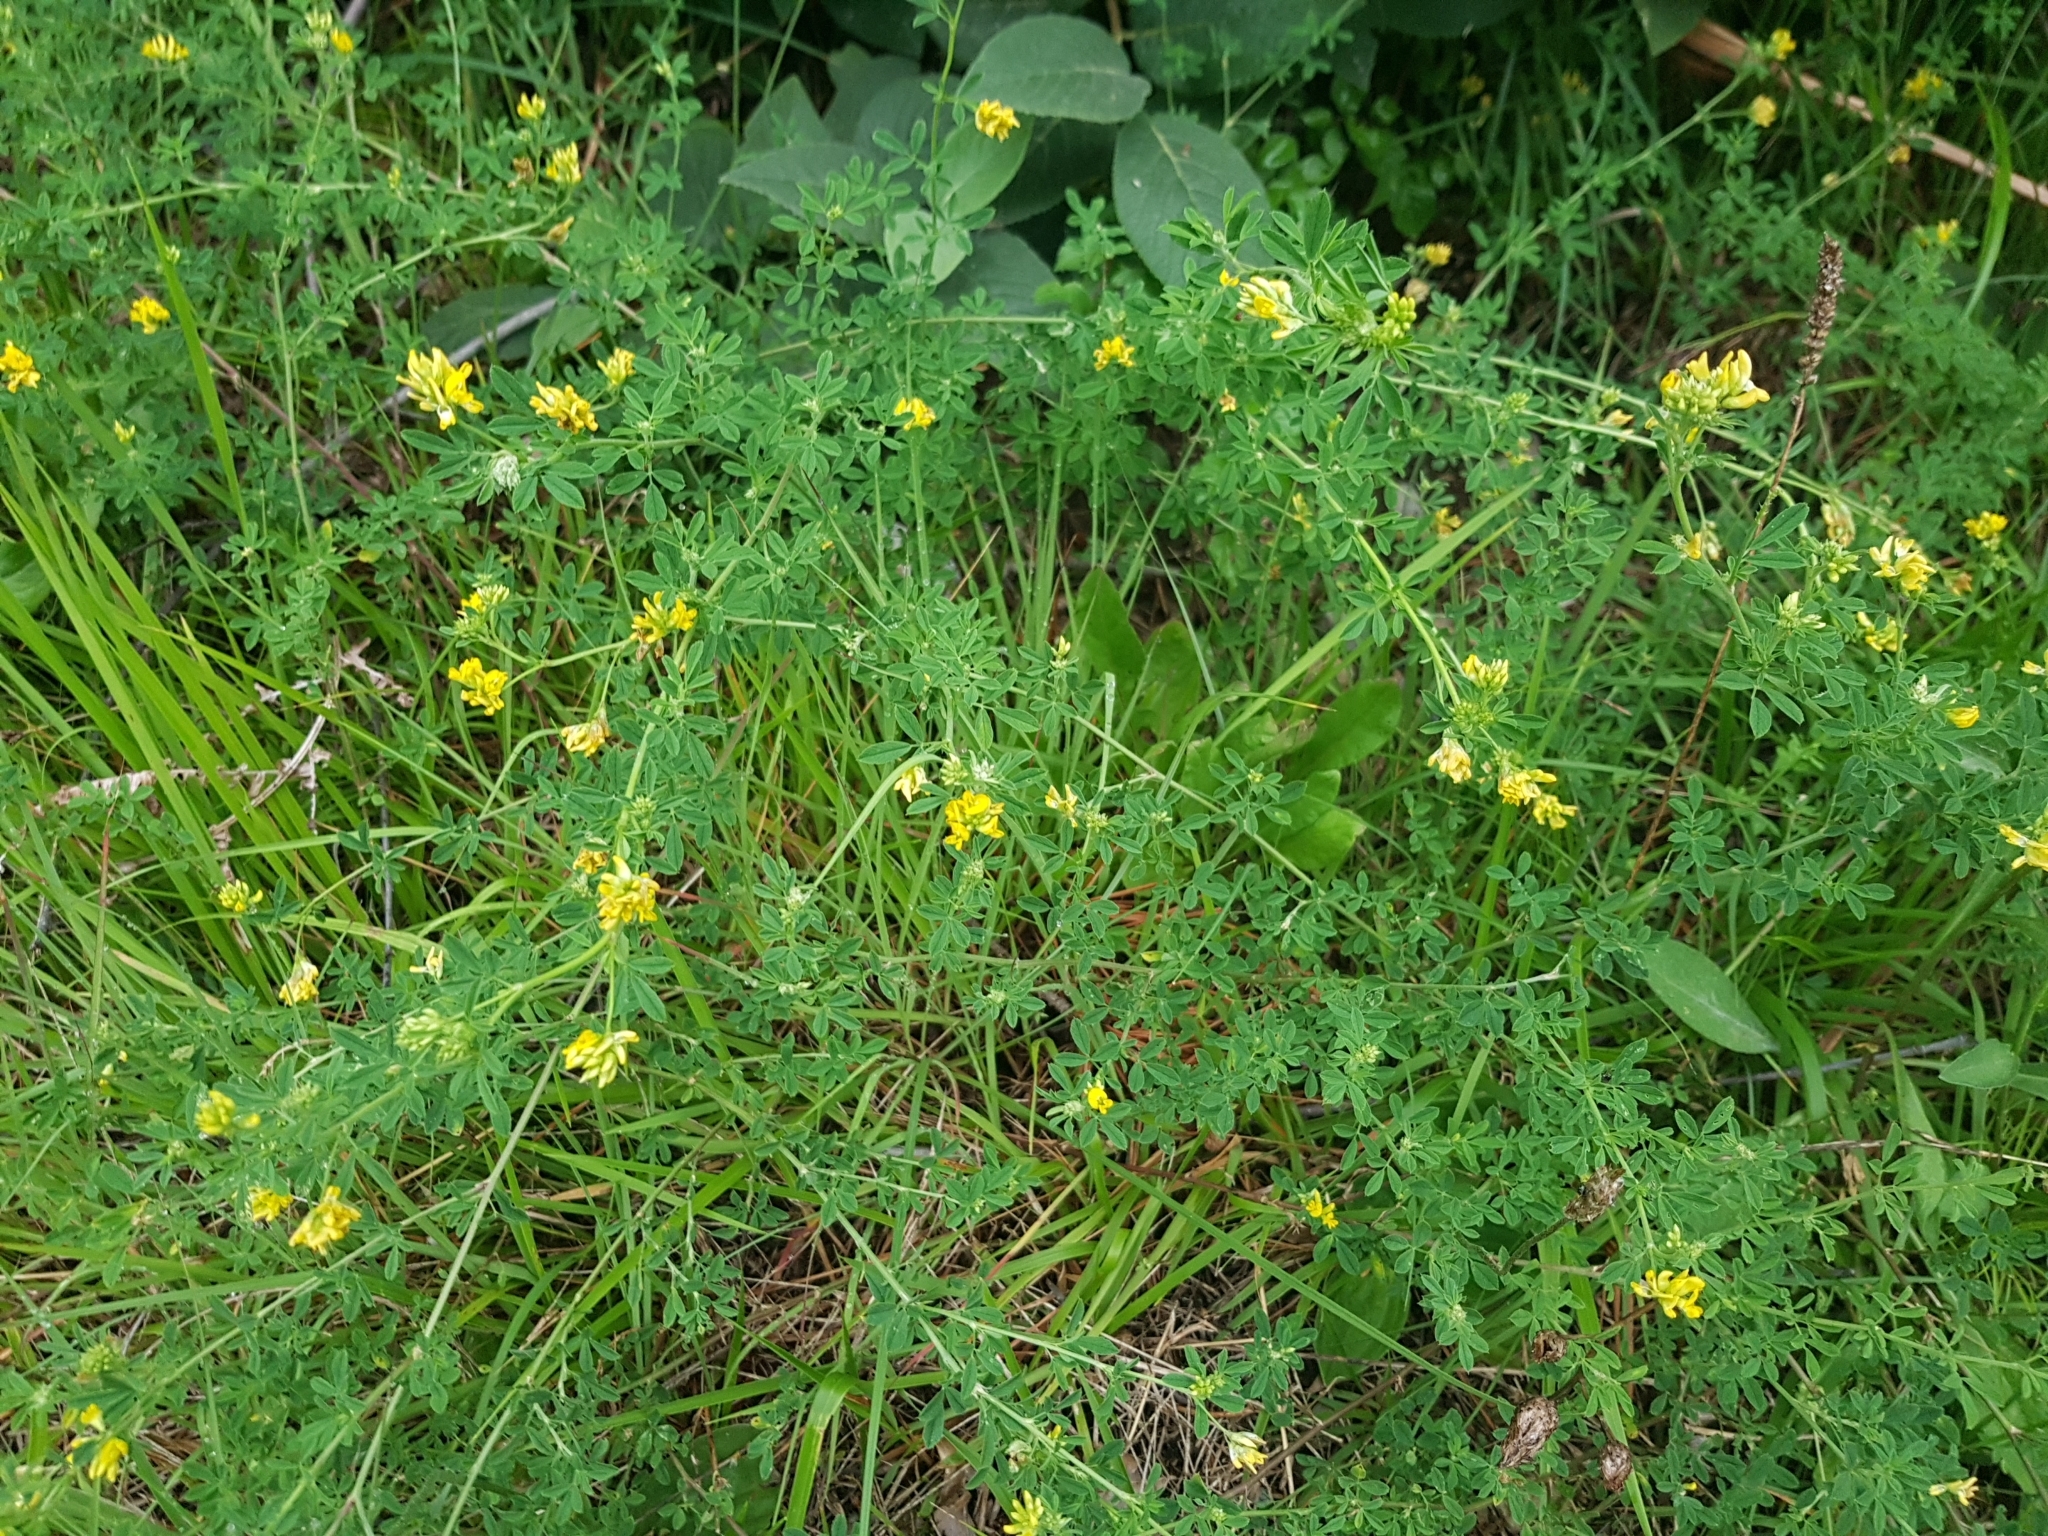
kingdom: Plantae
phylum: Tracheophyta
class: Magnoliopsida
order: Fabales
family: Fabaceae
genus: Medicago
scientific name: Medicago falcata
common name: Sickle medick
